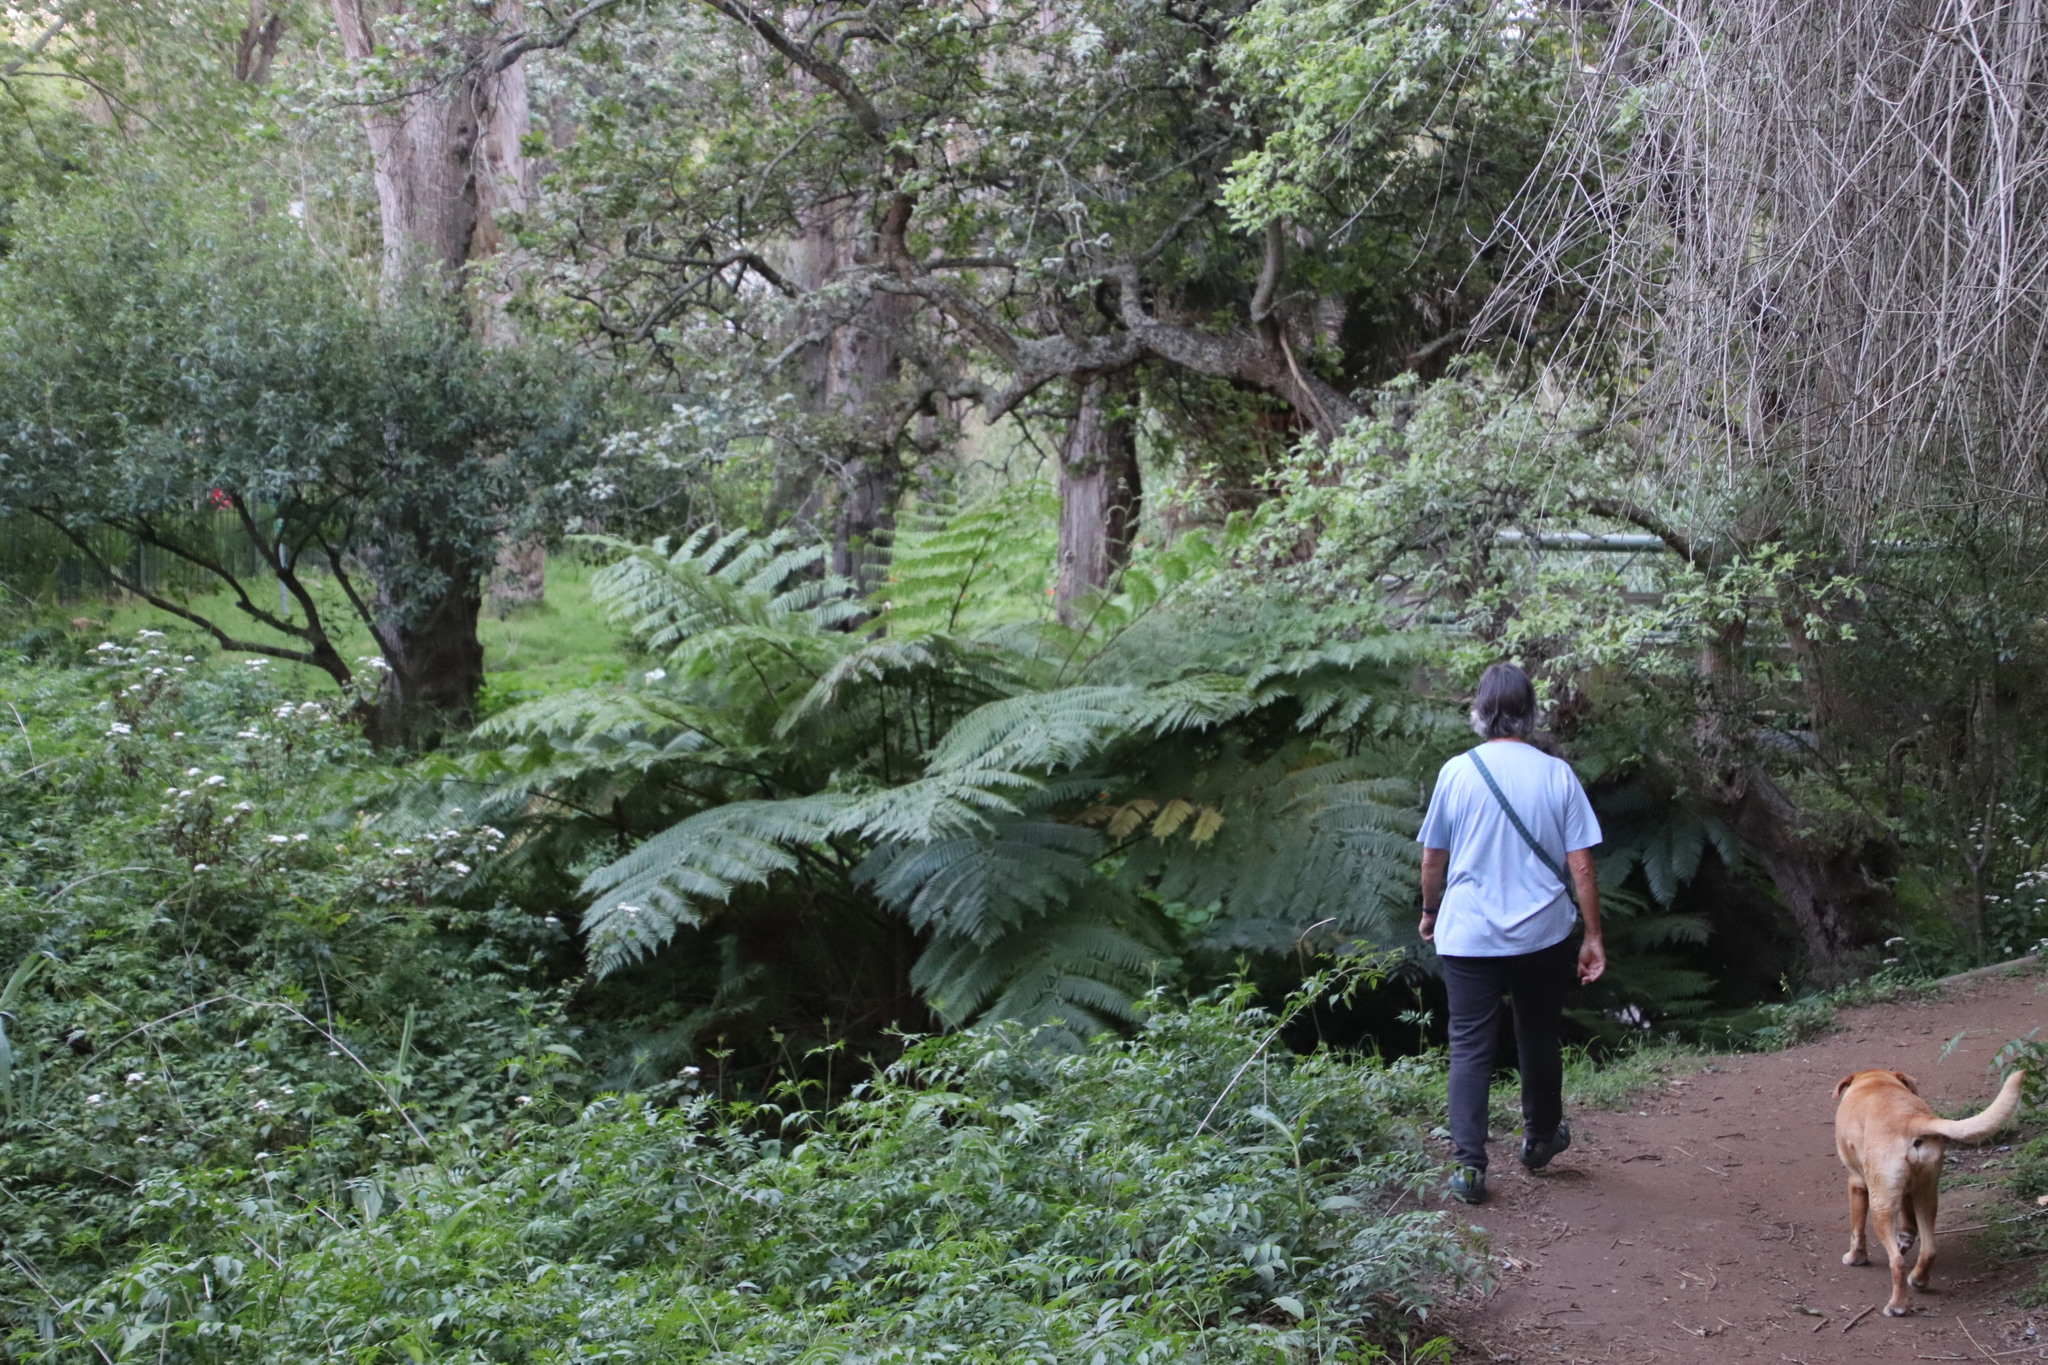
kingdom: Plantae
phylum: Tracheophyta
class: Polypodiopsida
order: Cyatheales
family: Cyatheaceae
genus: Sphaeropteris
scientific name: Sphaeropteris cooperi
